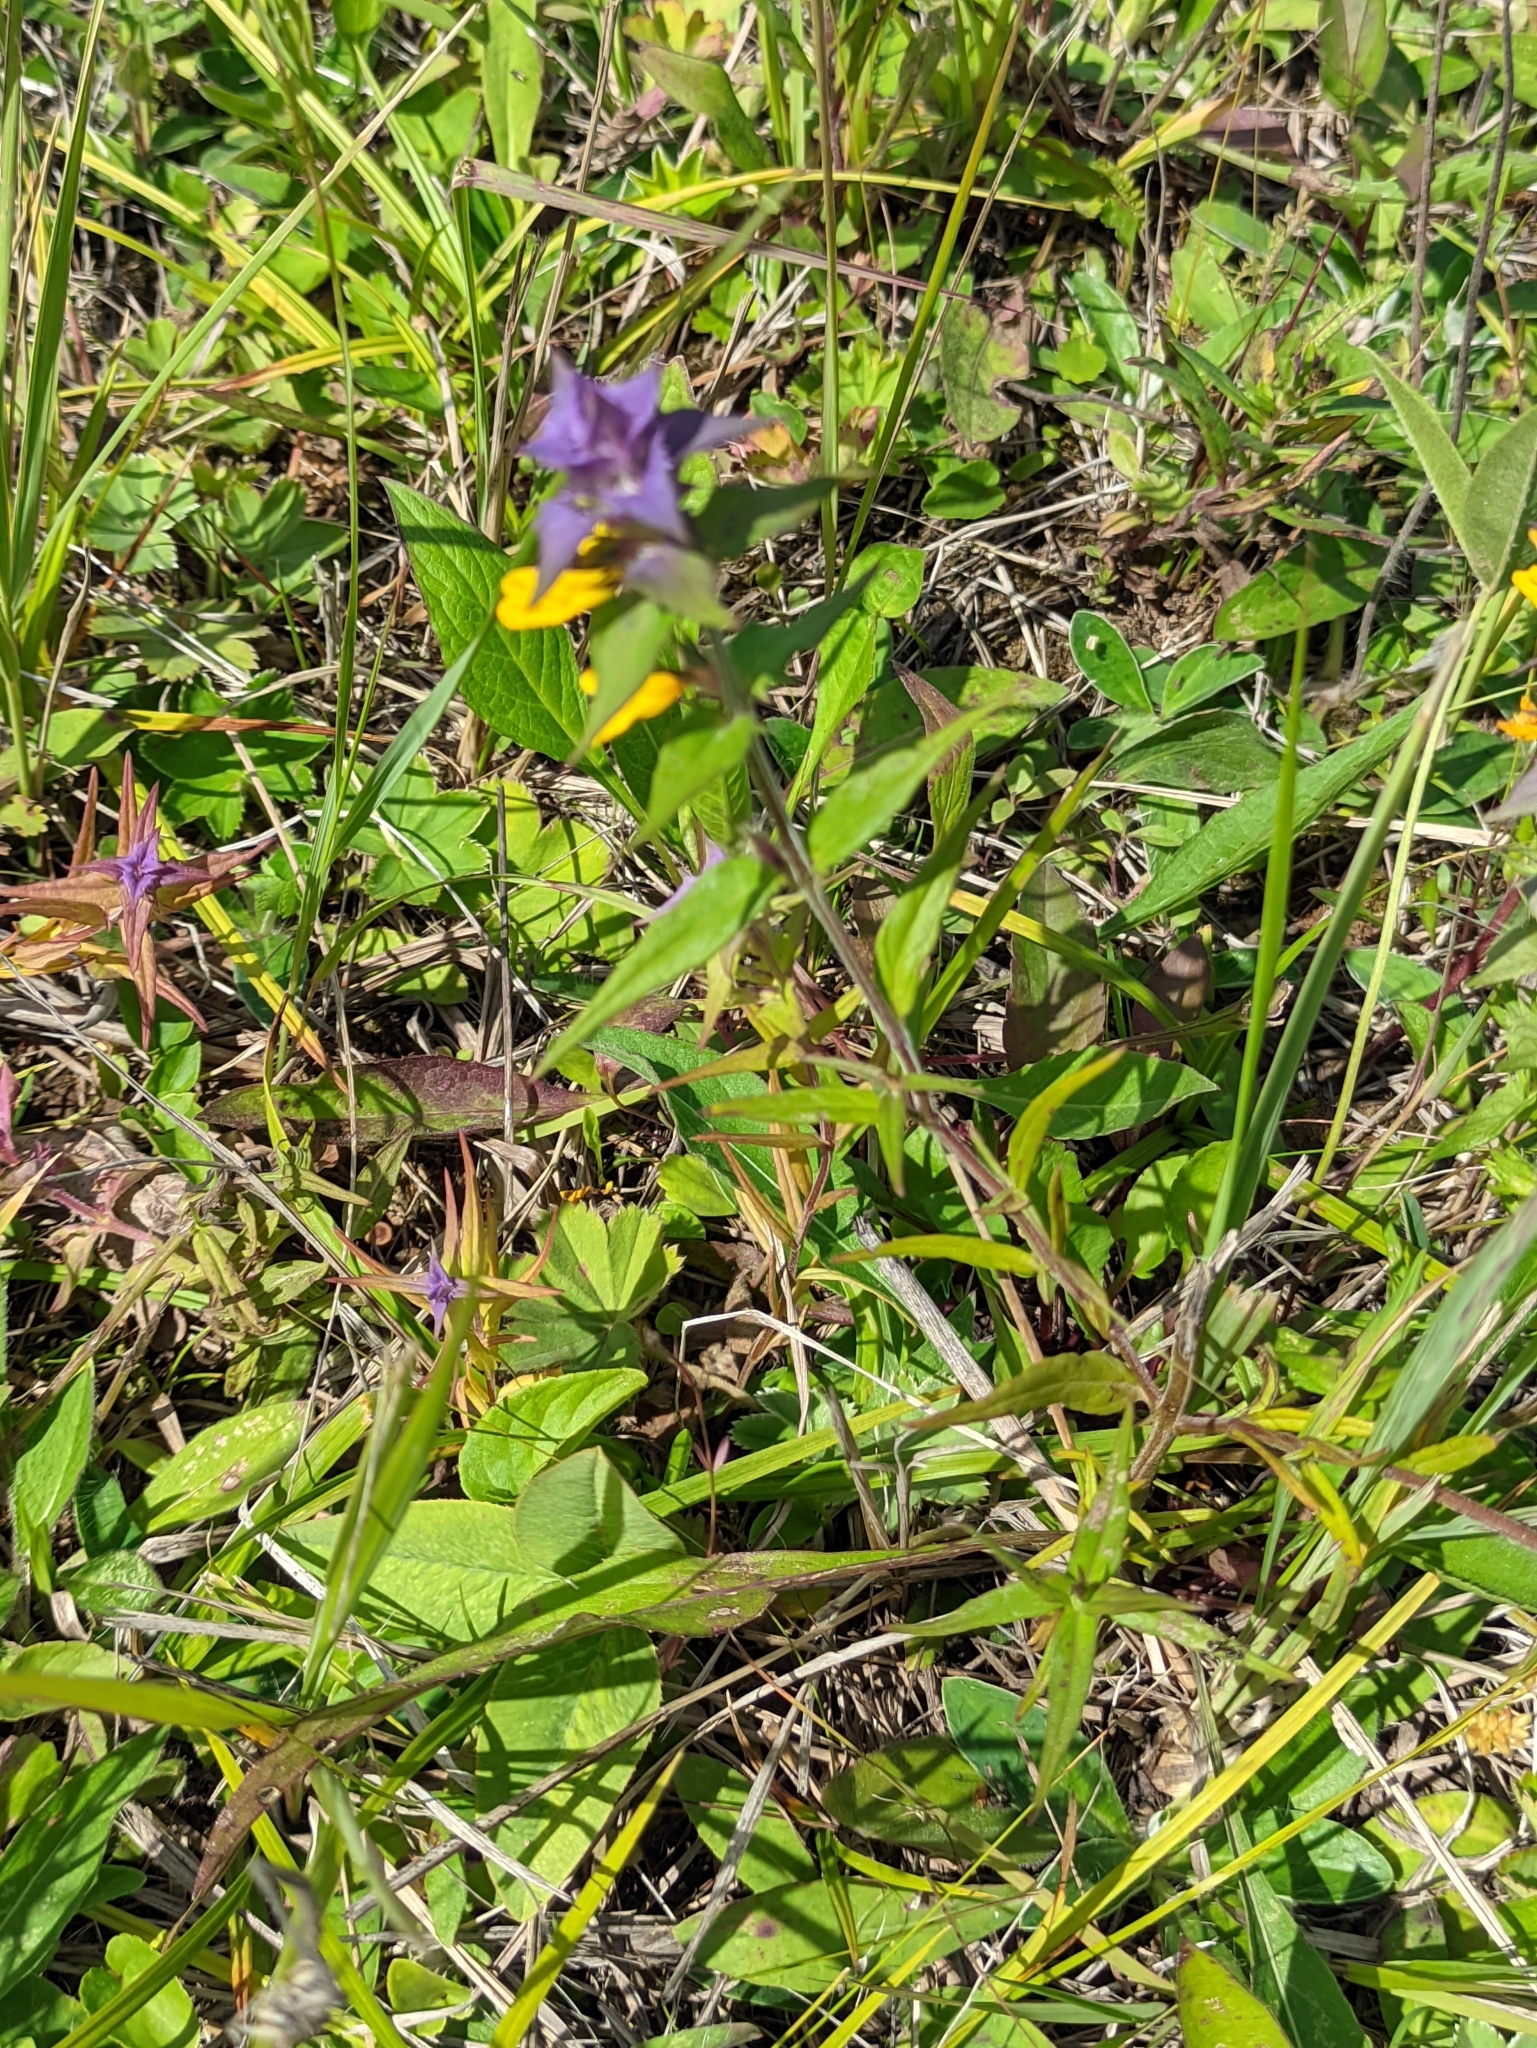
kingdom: Plantae
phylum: Tracheophyta
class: Magnoliopsida
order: Lamiales
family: Orobanchaceae
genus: Melampyrum
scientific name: Melampyrum nemorosum
